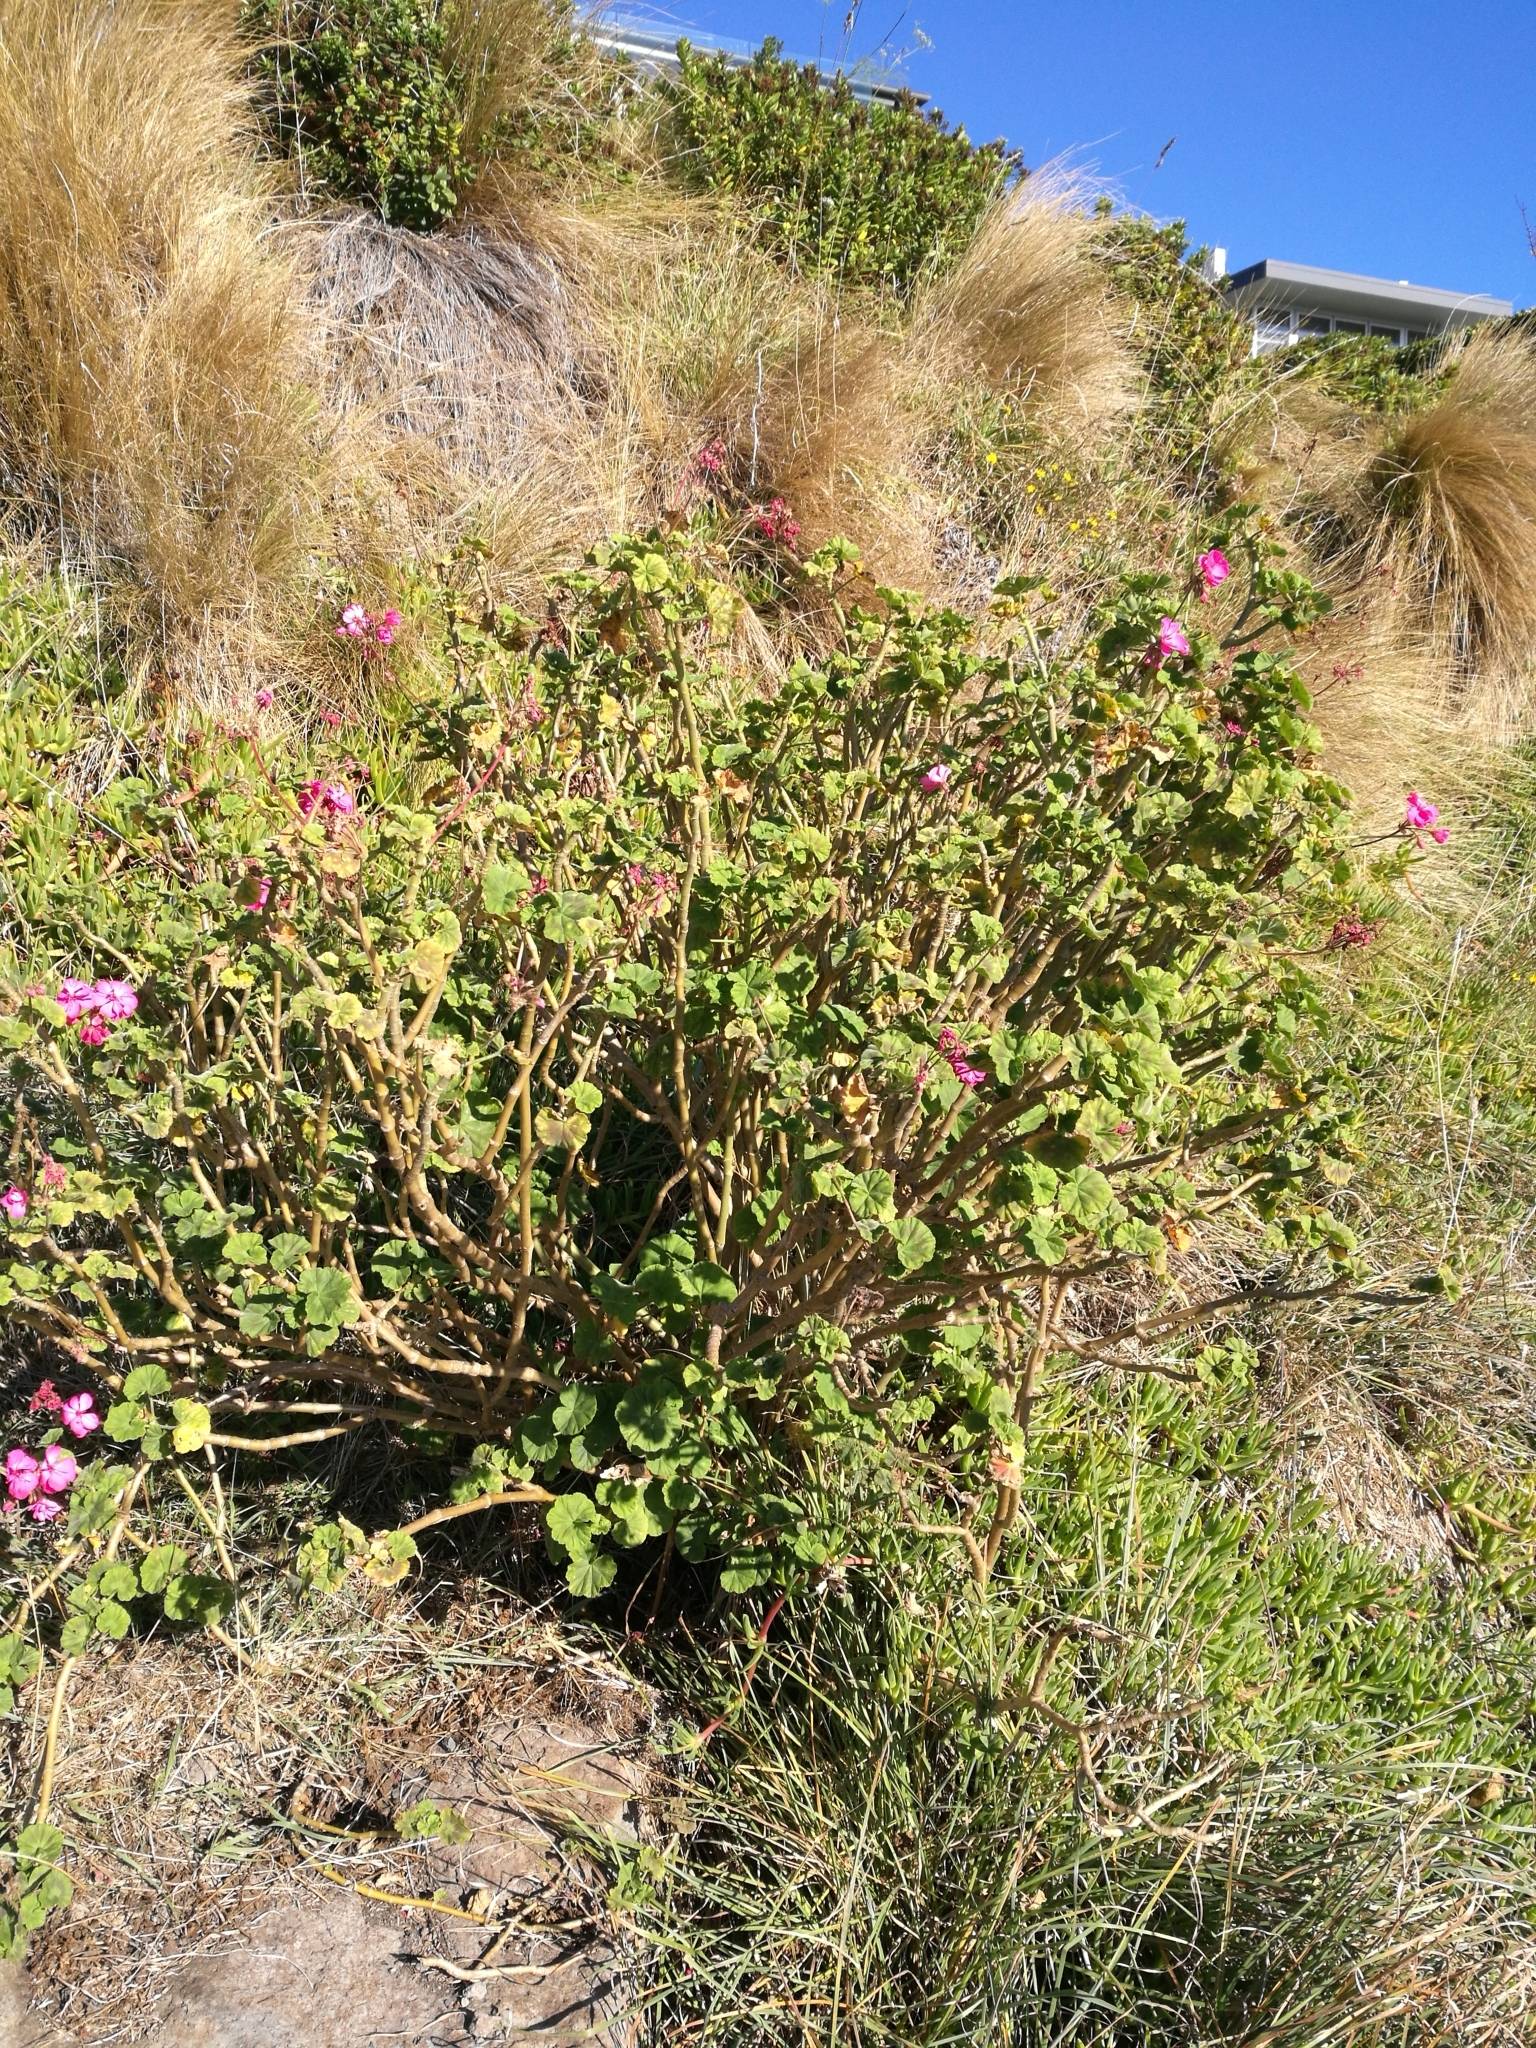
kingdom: Plantae
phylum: Tracheophyta
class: Magnoliopsida
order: Geraniales
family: Geraniaceae
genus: Pelargonium
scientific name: Pelargonium hybridum
